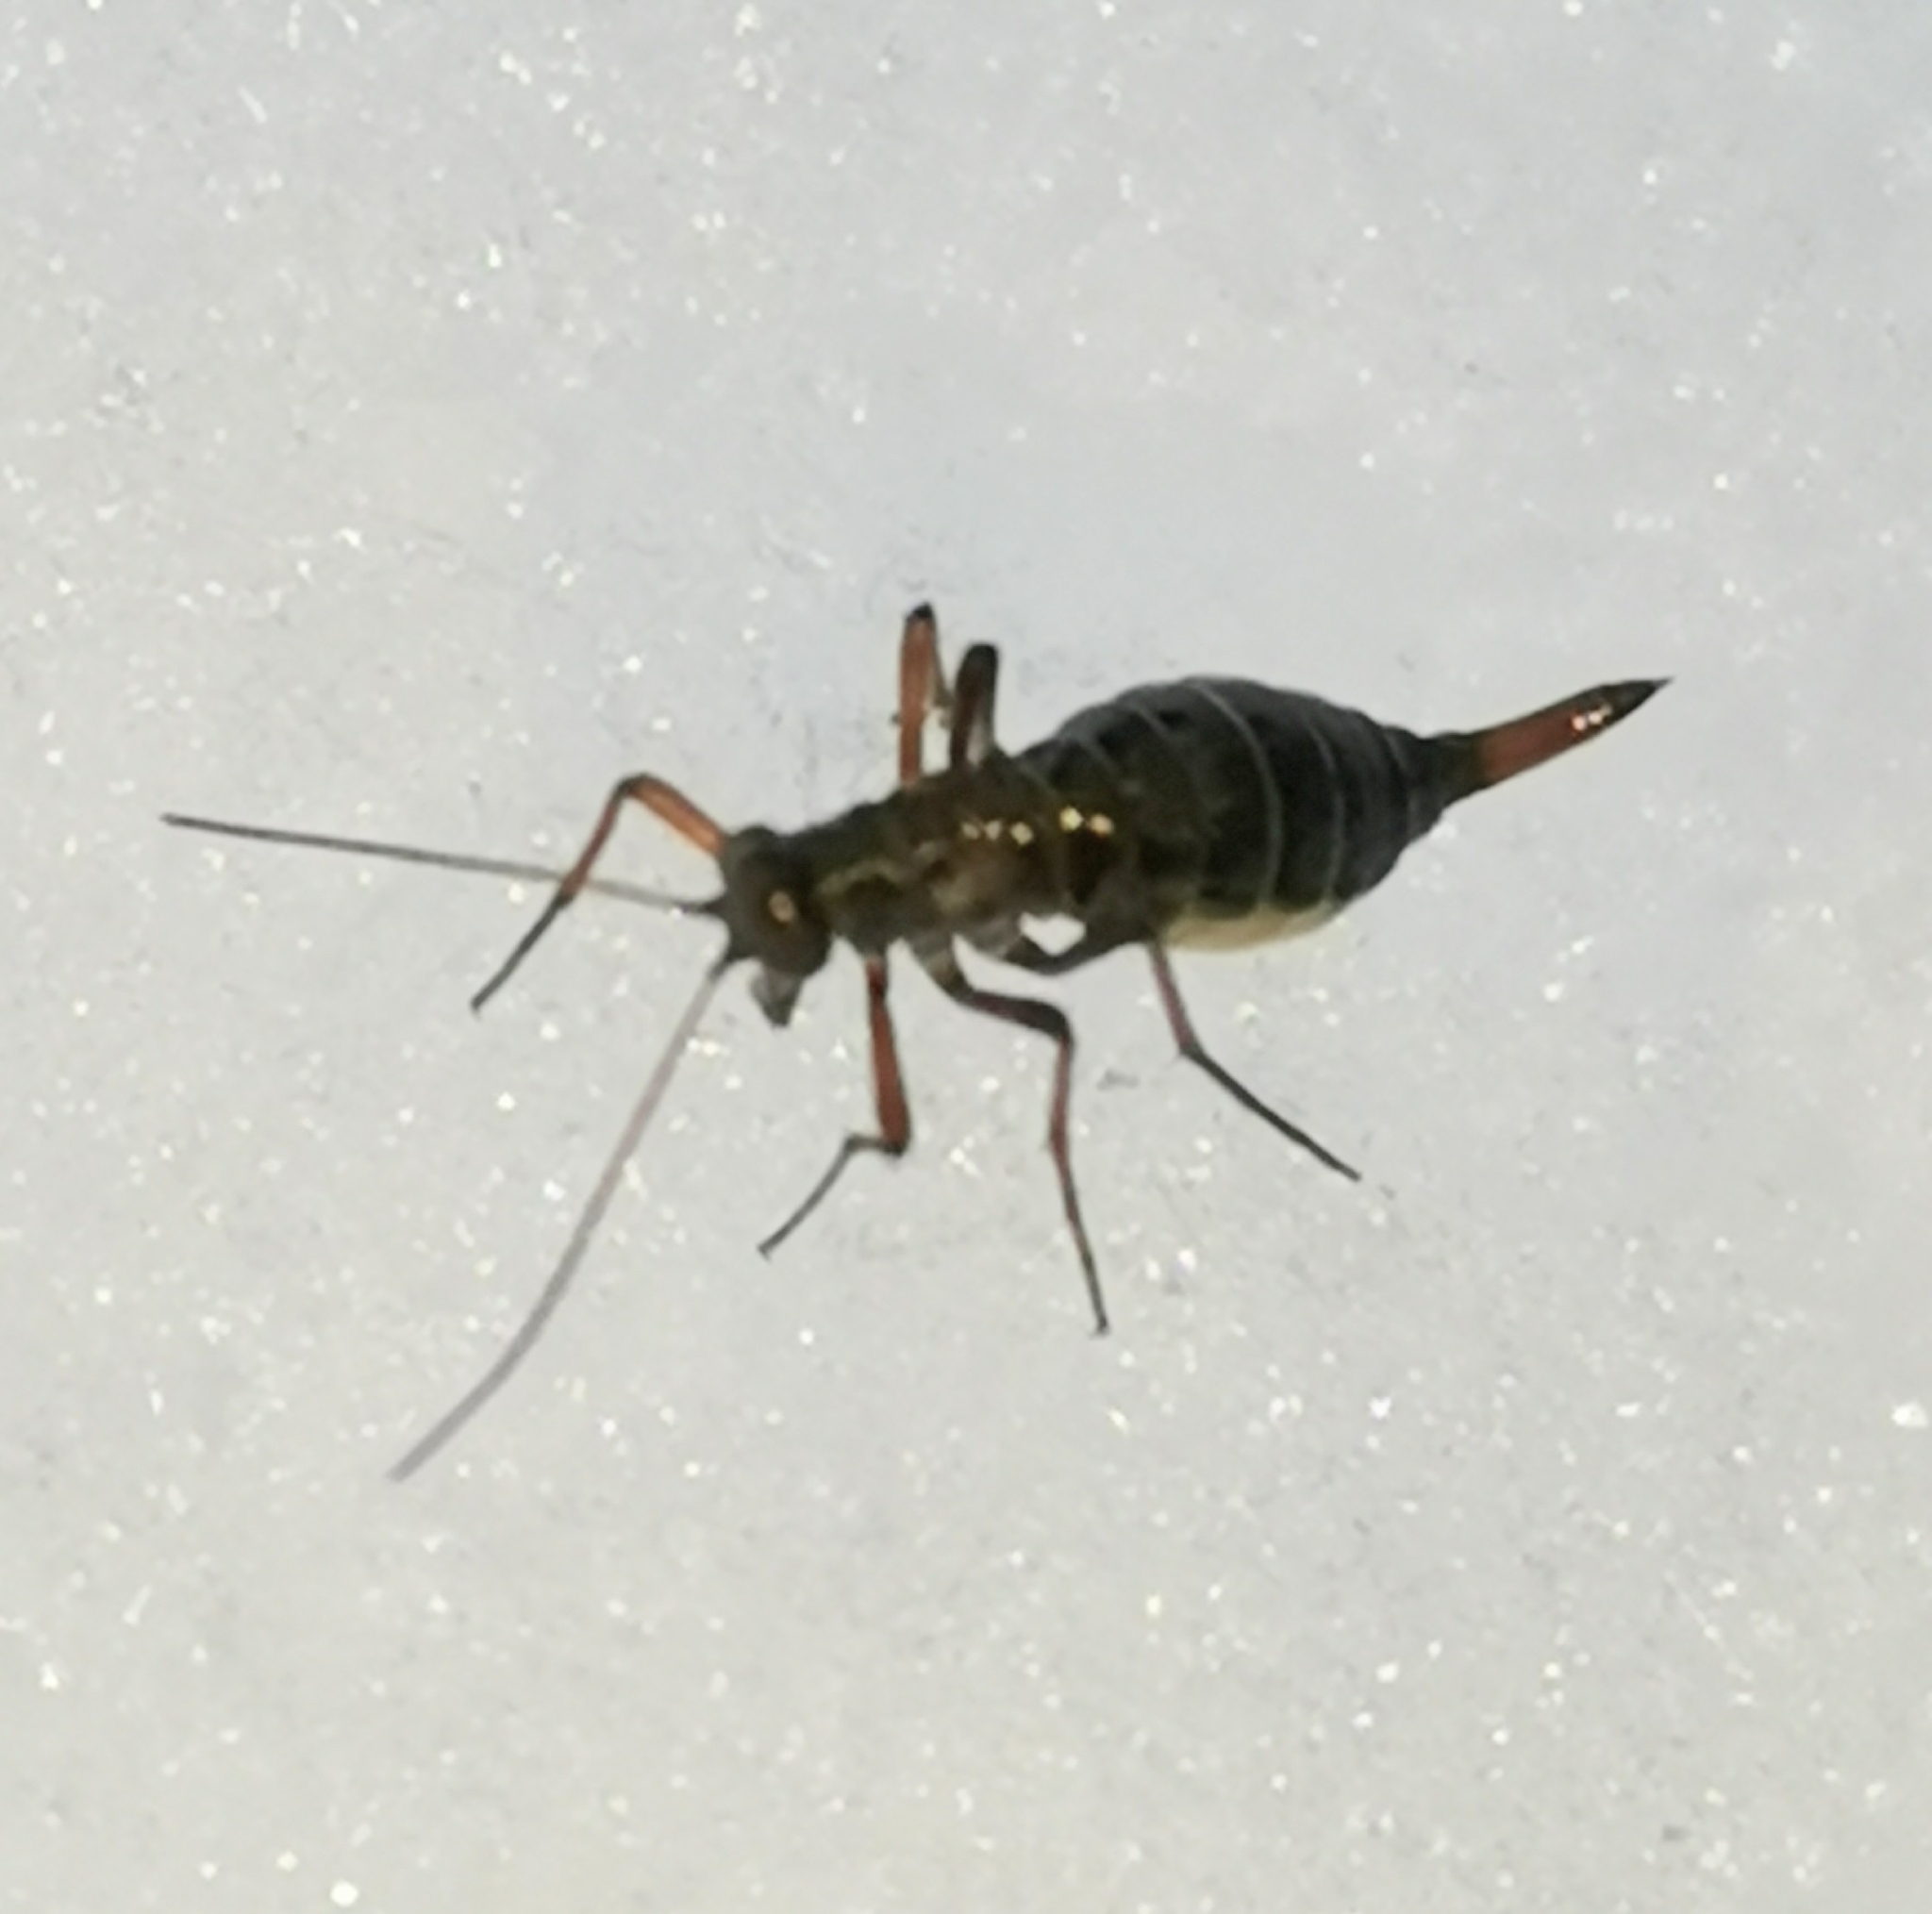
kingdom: Animalia
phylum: Arthropoda
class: Insecta
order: Mecoptera
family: Boreidae
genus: Boreus
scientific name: Boreus westwoodi
